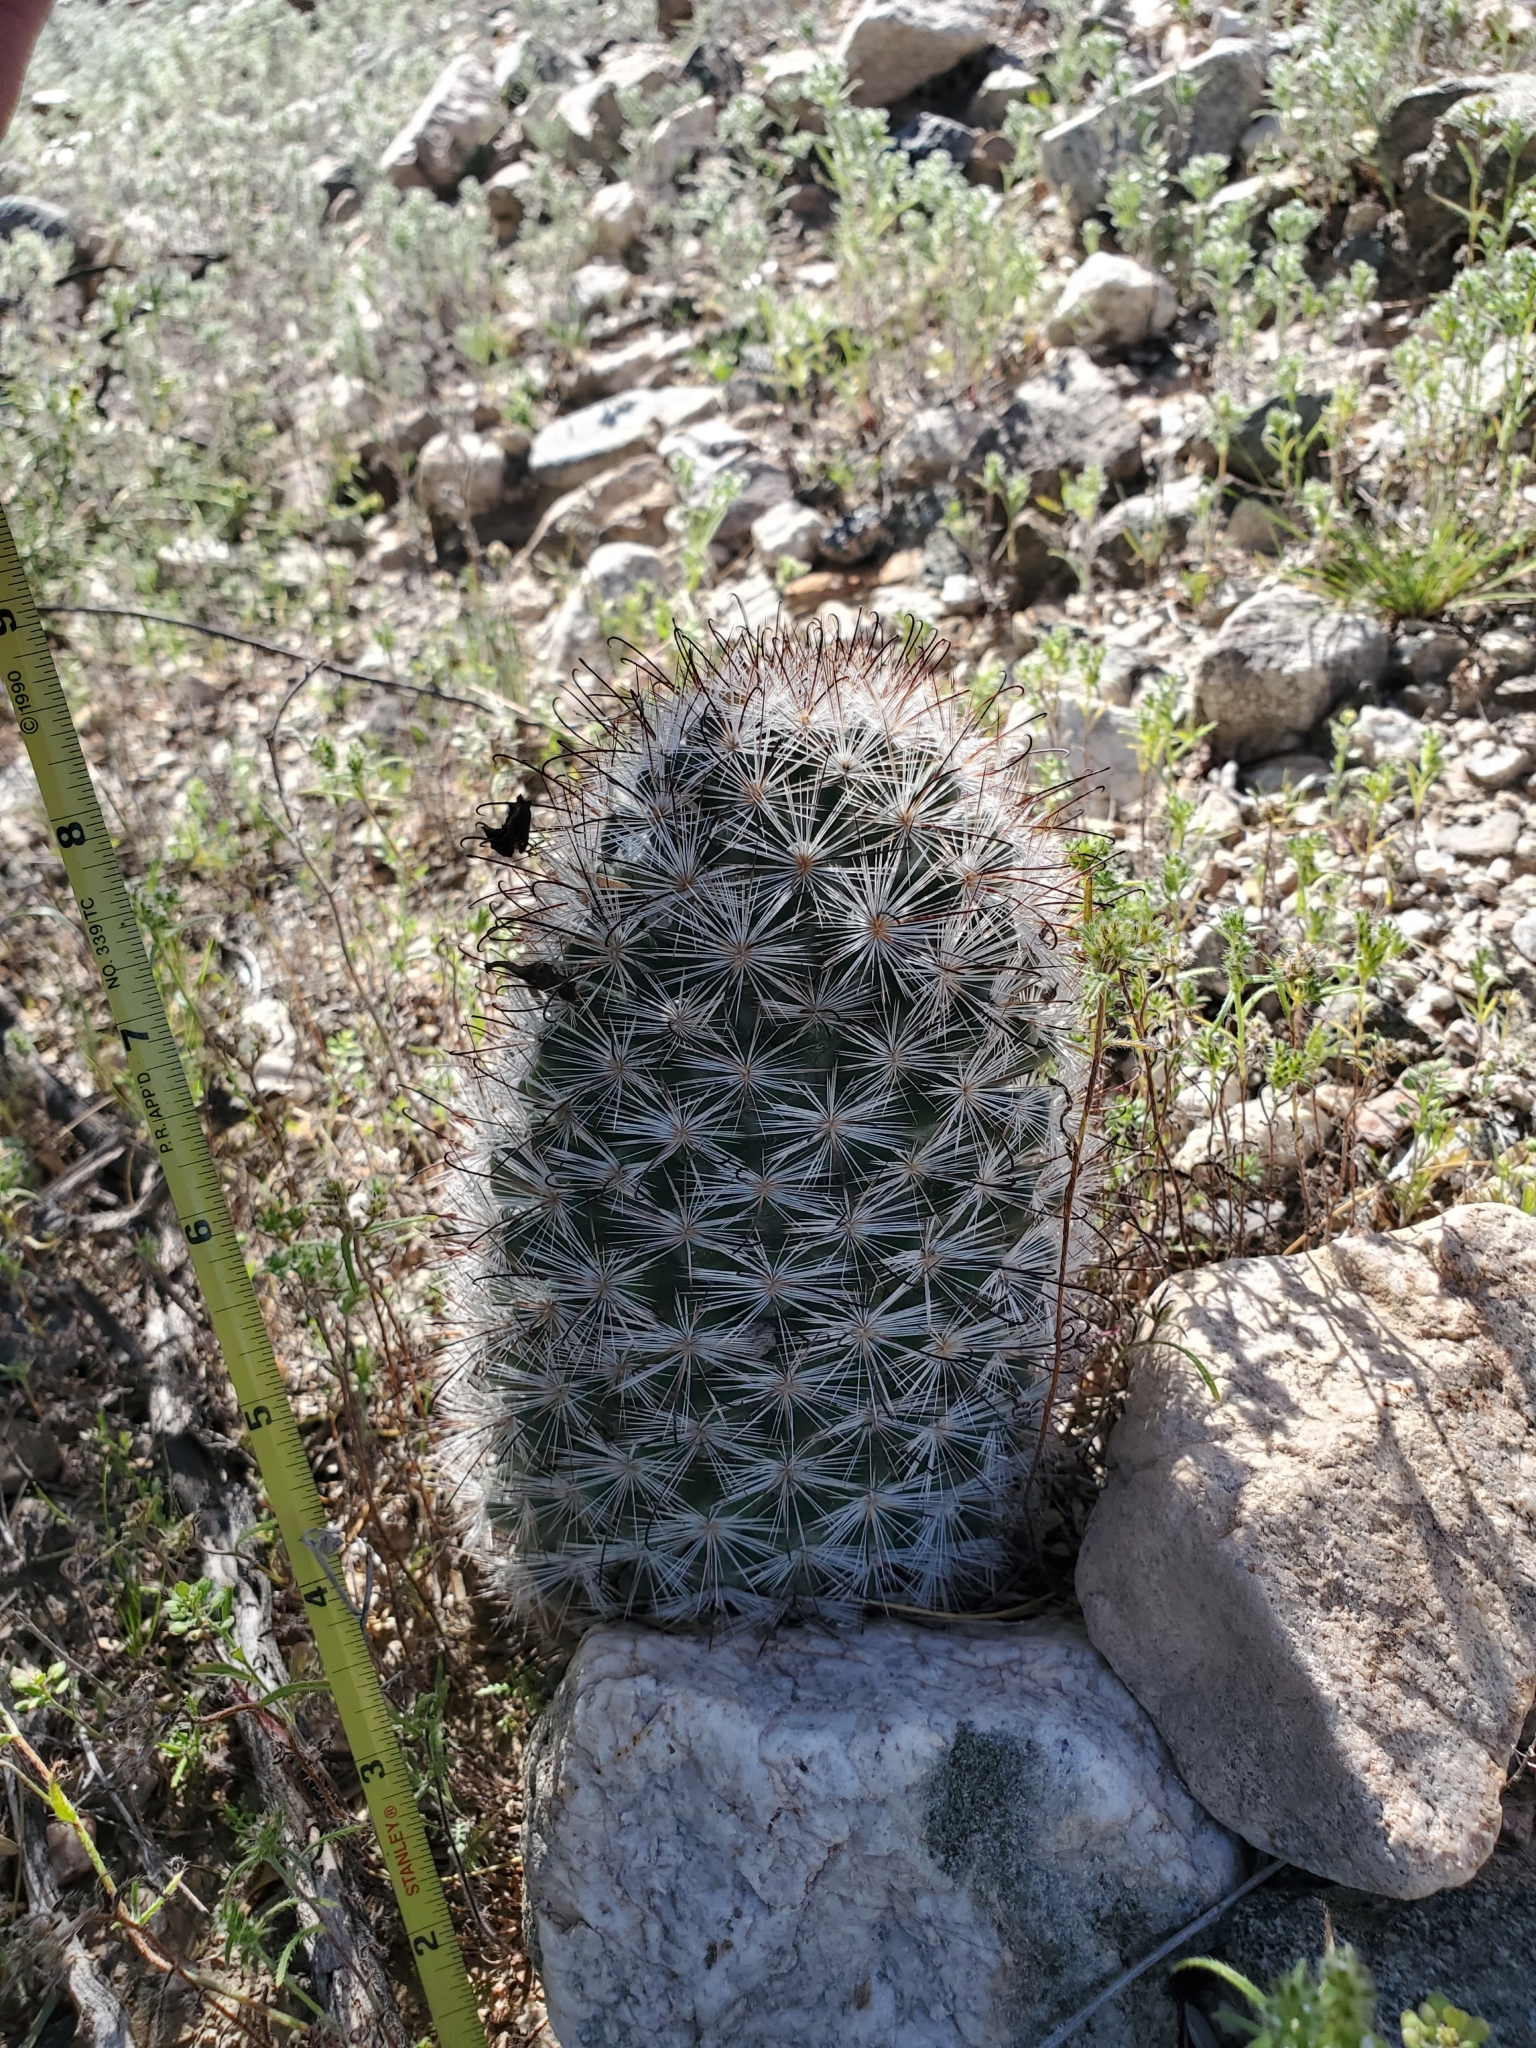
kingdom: Plantae
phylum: Tracheophyta
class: Magnoliopsida
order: Caryophyllales
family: Cactaceae
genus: Cochemiea
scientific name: Cochemiea tetrancistra
